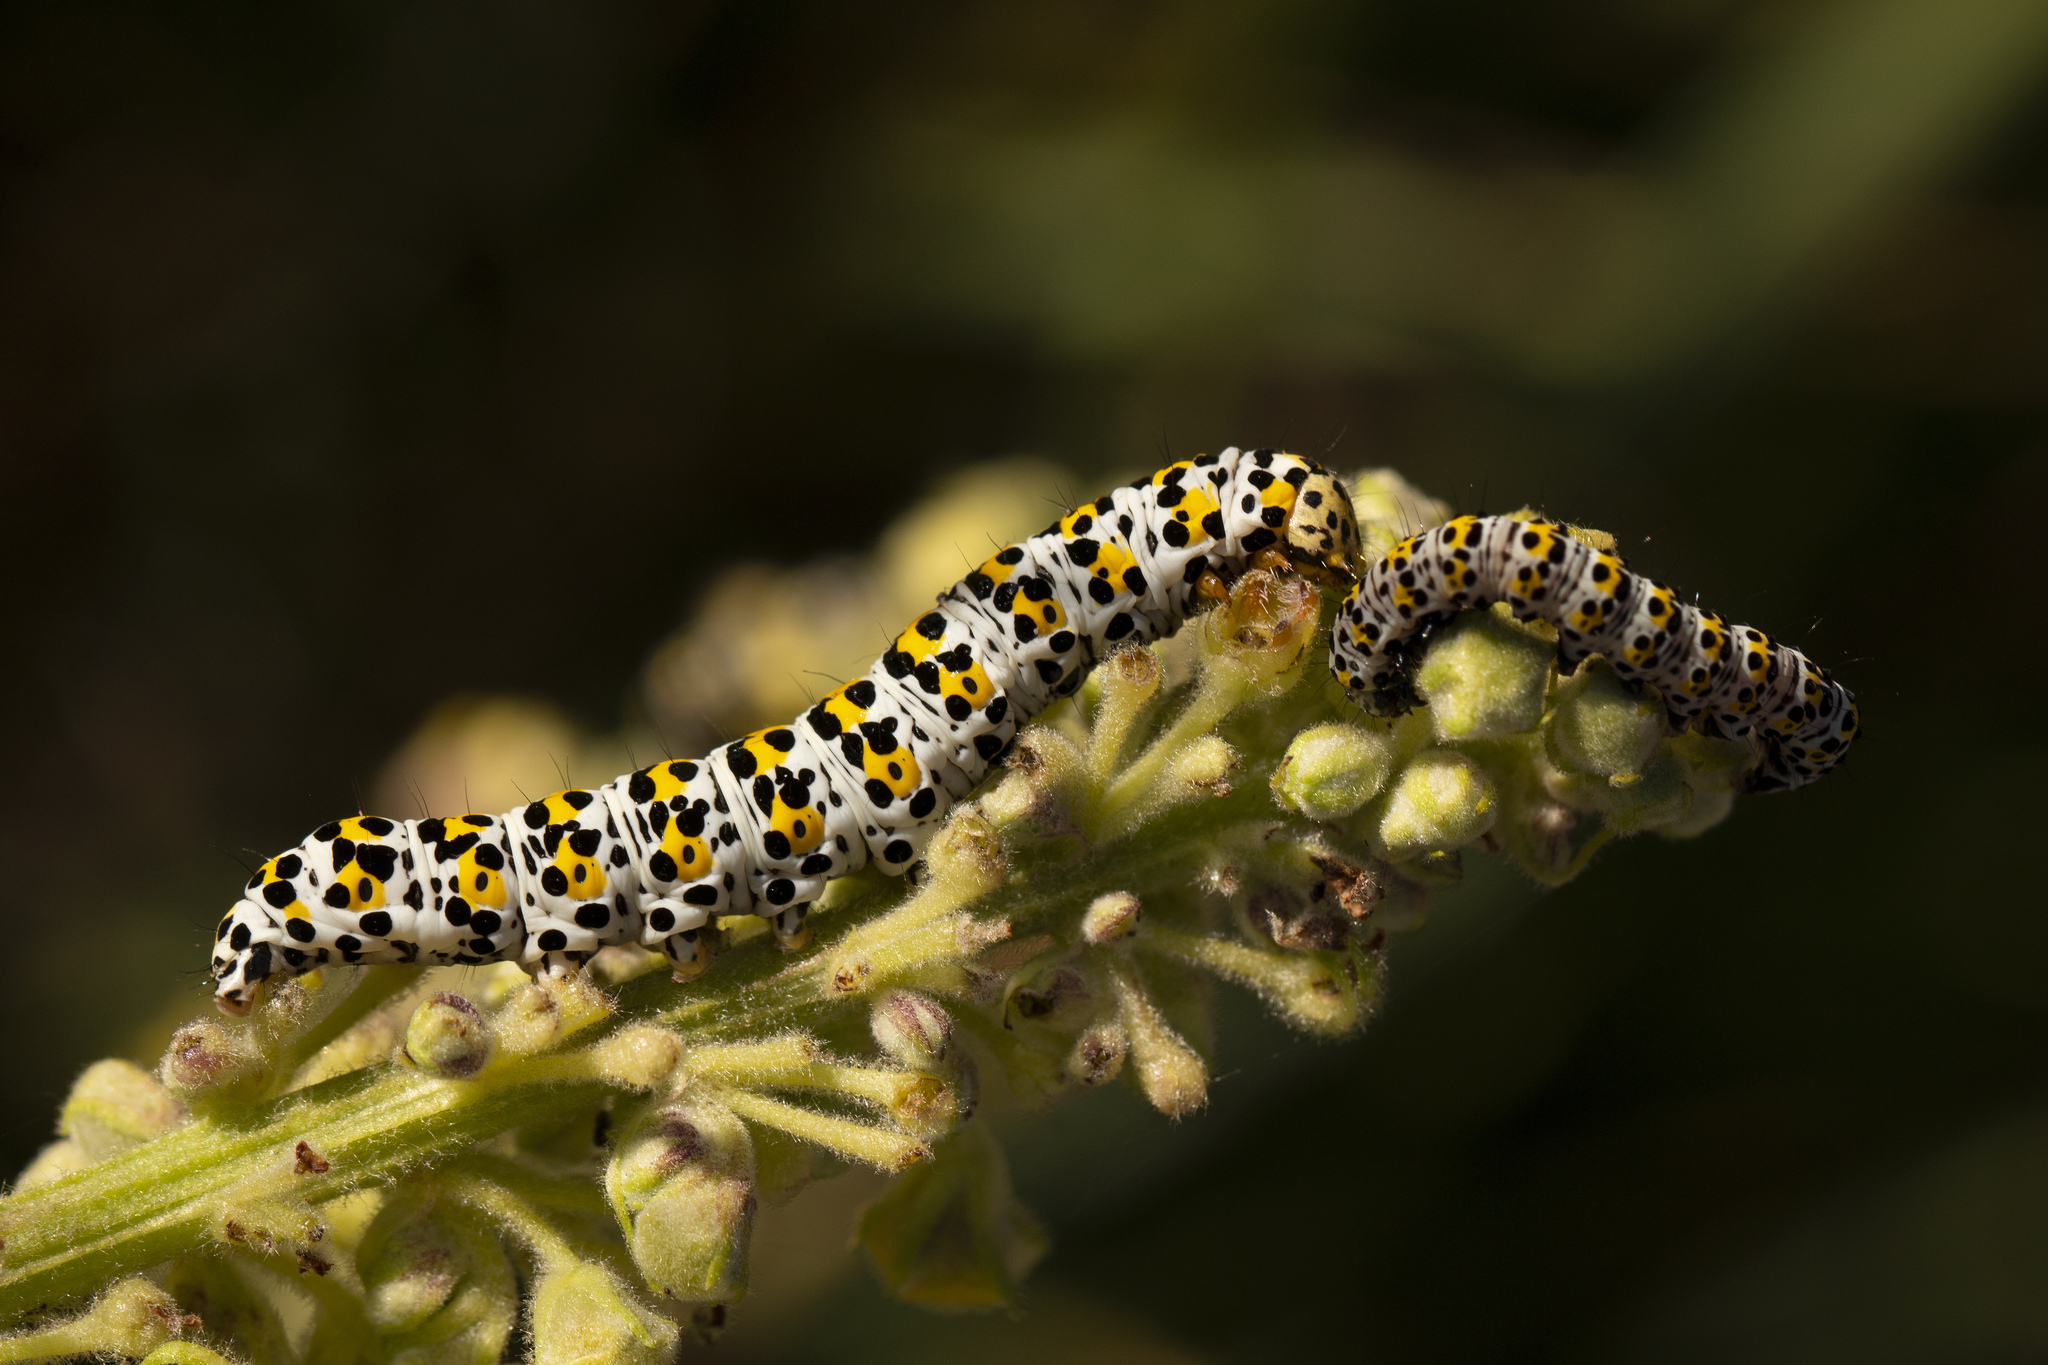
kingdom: Animalia
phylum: Arthropoda
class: Insecta
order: Lepidoptera
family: Noctuidae
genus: Cucullia
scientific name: Cucullia verbasci
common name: Mullein
